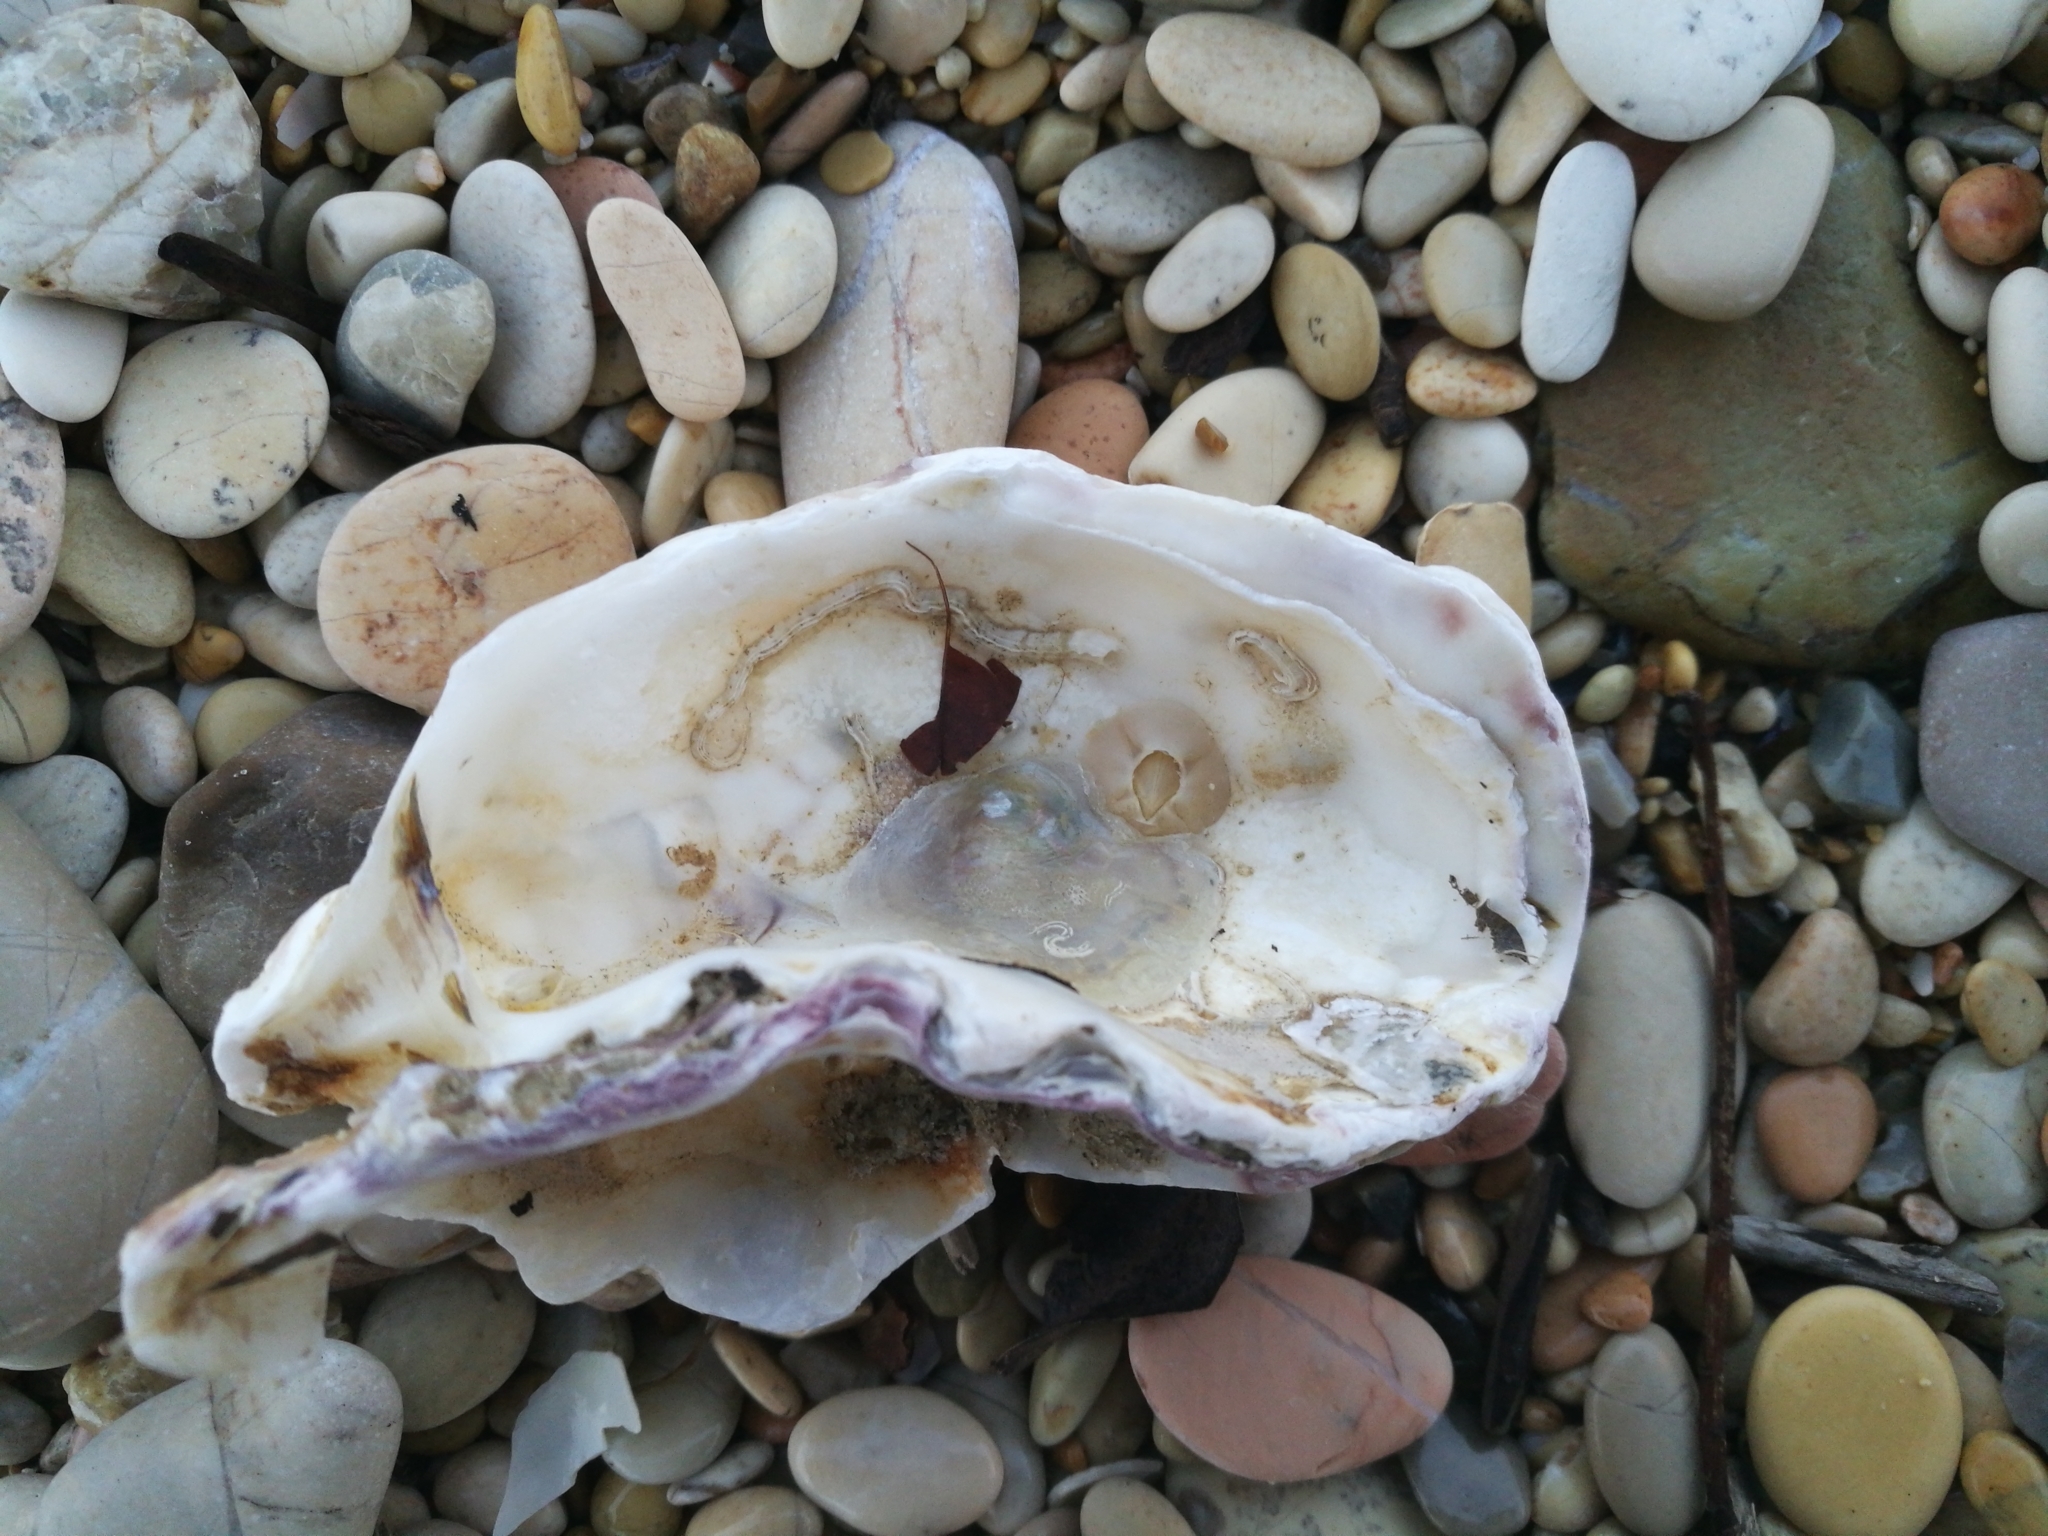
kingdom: Animalia
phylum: Arthropoda
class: Maxillopoda
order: Sessilia
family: Balanidae
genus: Amphibalanus
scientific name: Amphibalanus improvisus
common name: Bay barnacle
